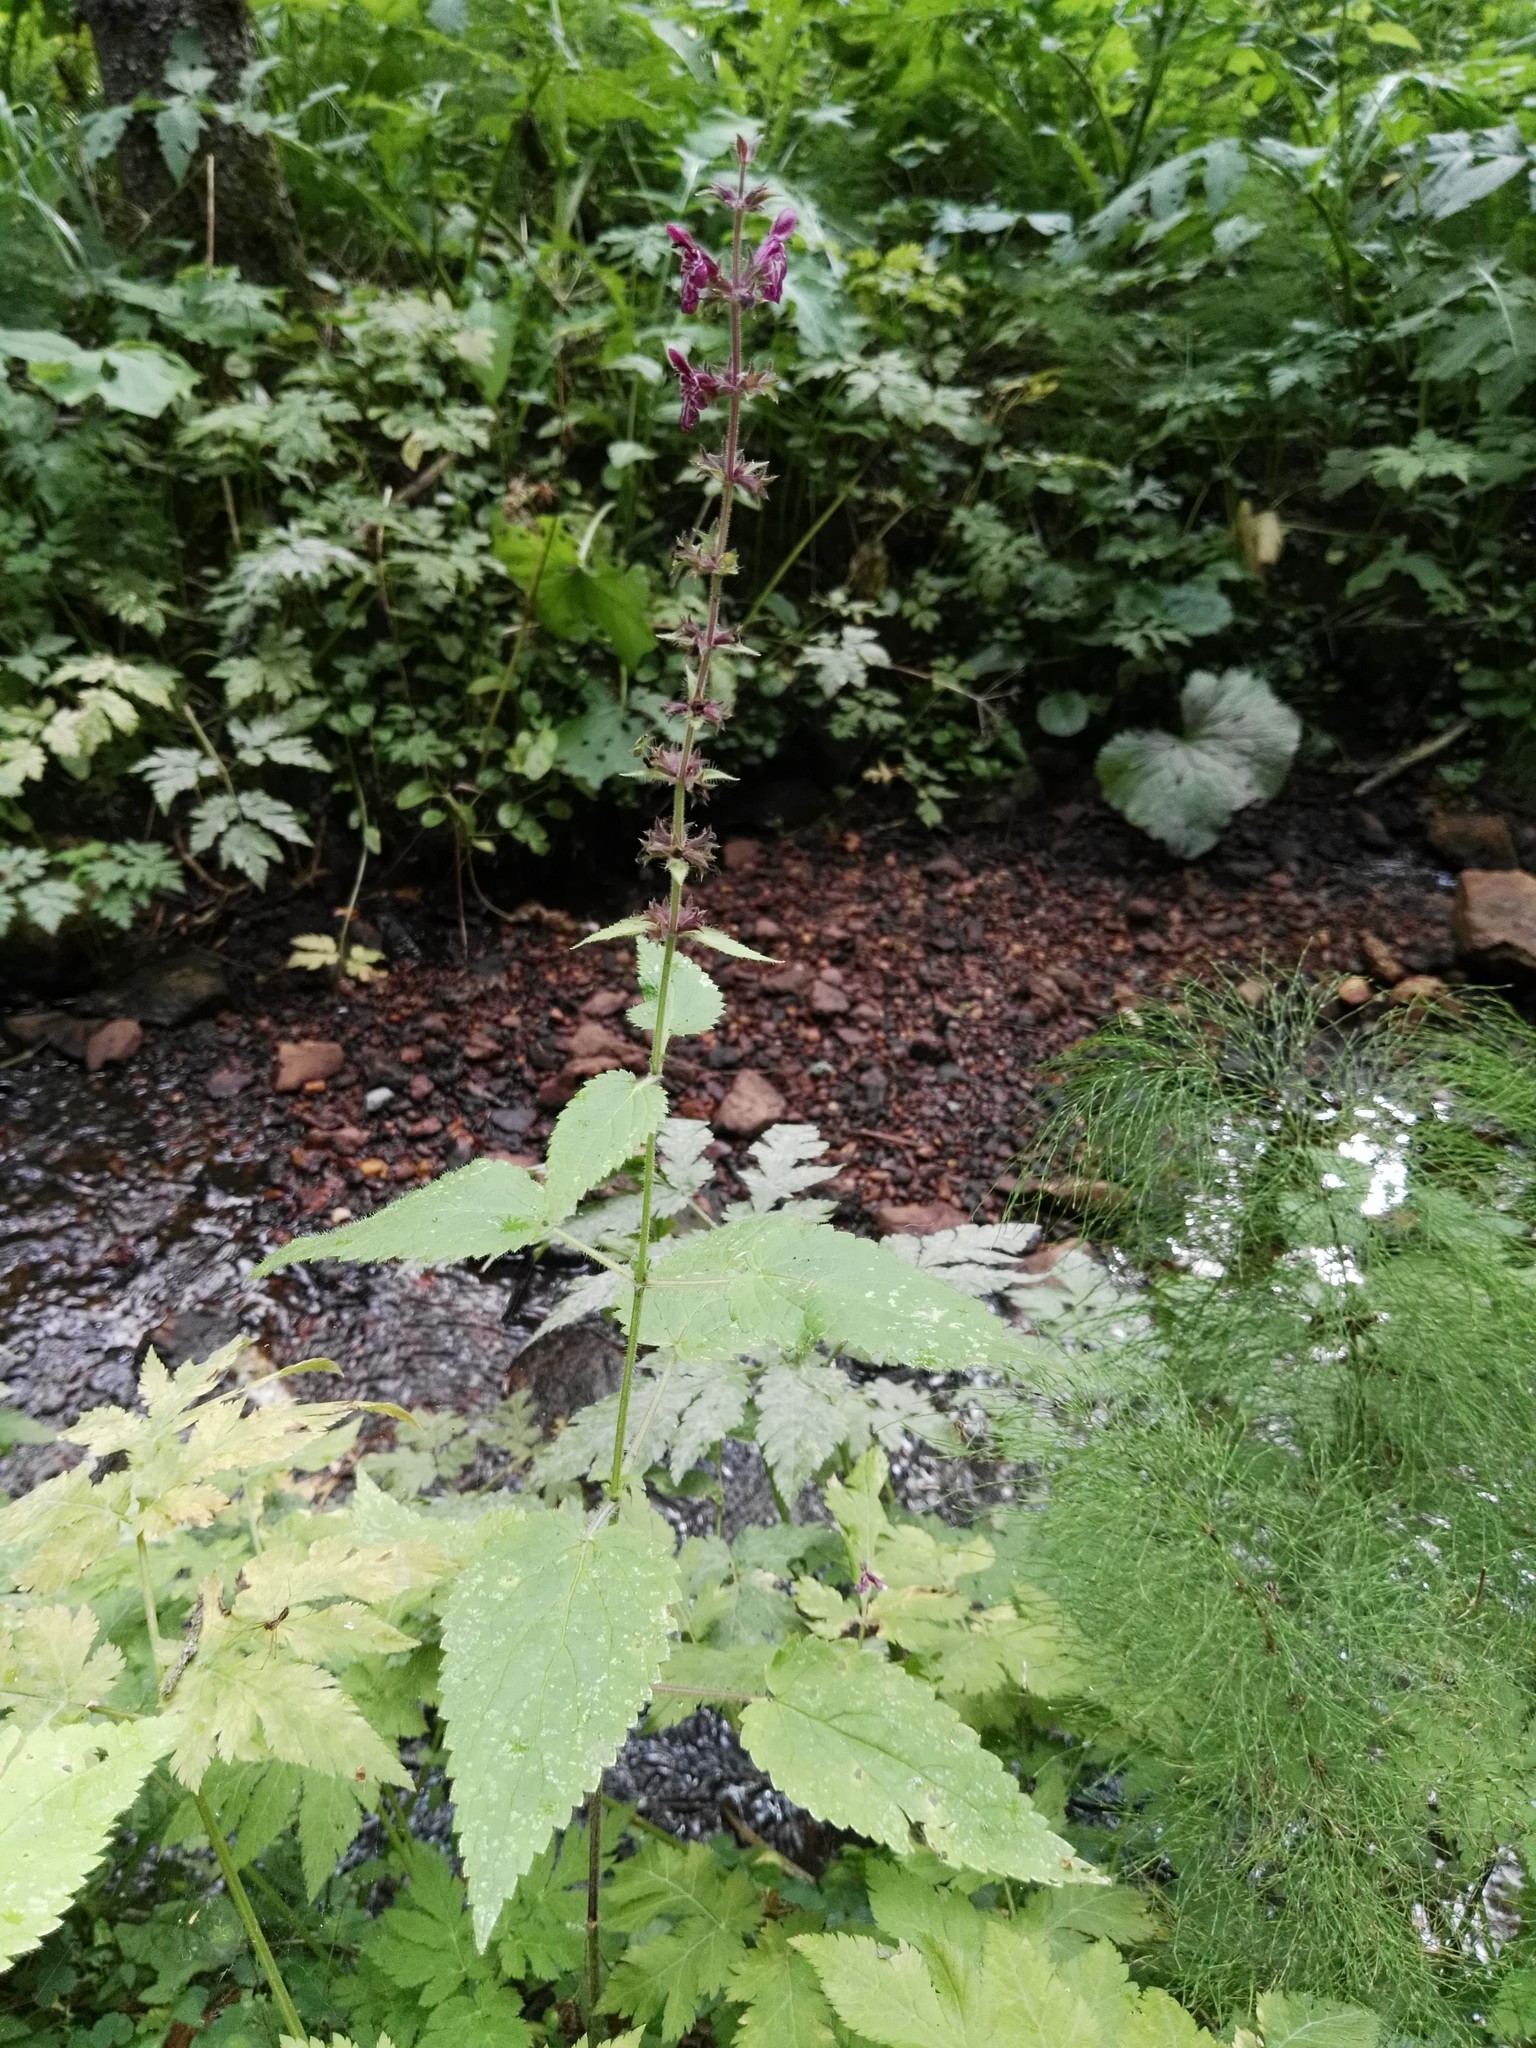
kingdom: Plantae
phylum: Tracheophyta
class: Magnoliopsida
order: Lamiales
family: Lamiaceae
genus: Stachys
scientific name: Stachys sylvatica
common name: Hedge woundwort
